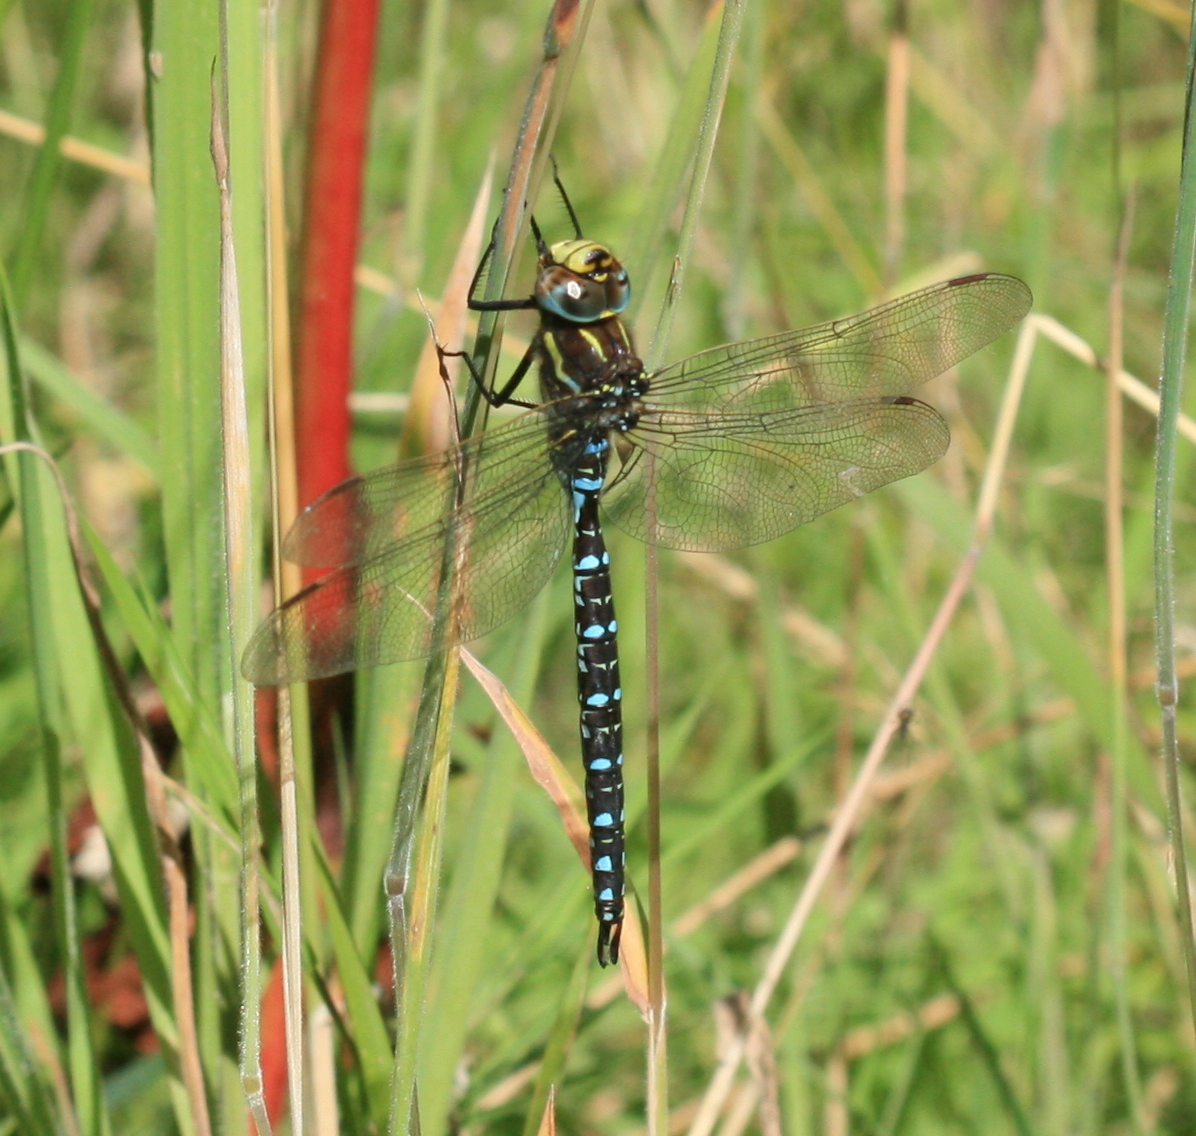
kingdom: Animalia
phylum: Arthropoda
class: Insecta
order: Odonata
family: Aeshnidae
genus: Aeshna
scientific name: Aeshna juncea
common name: Moorland hawker
